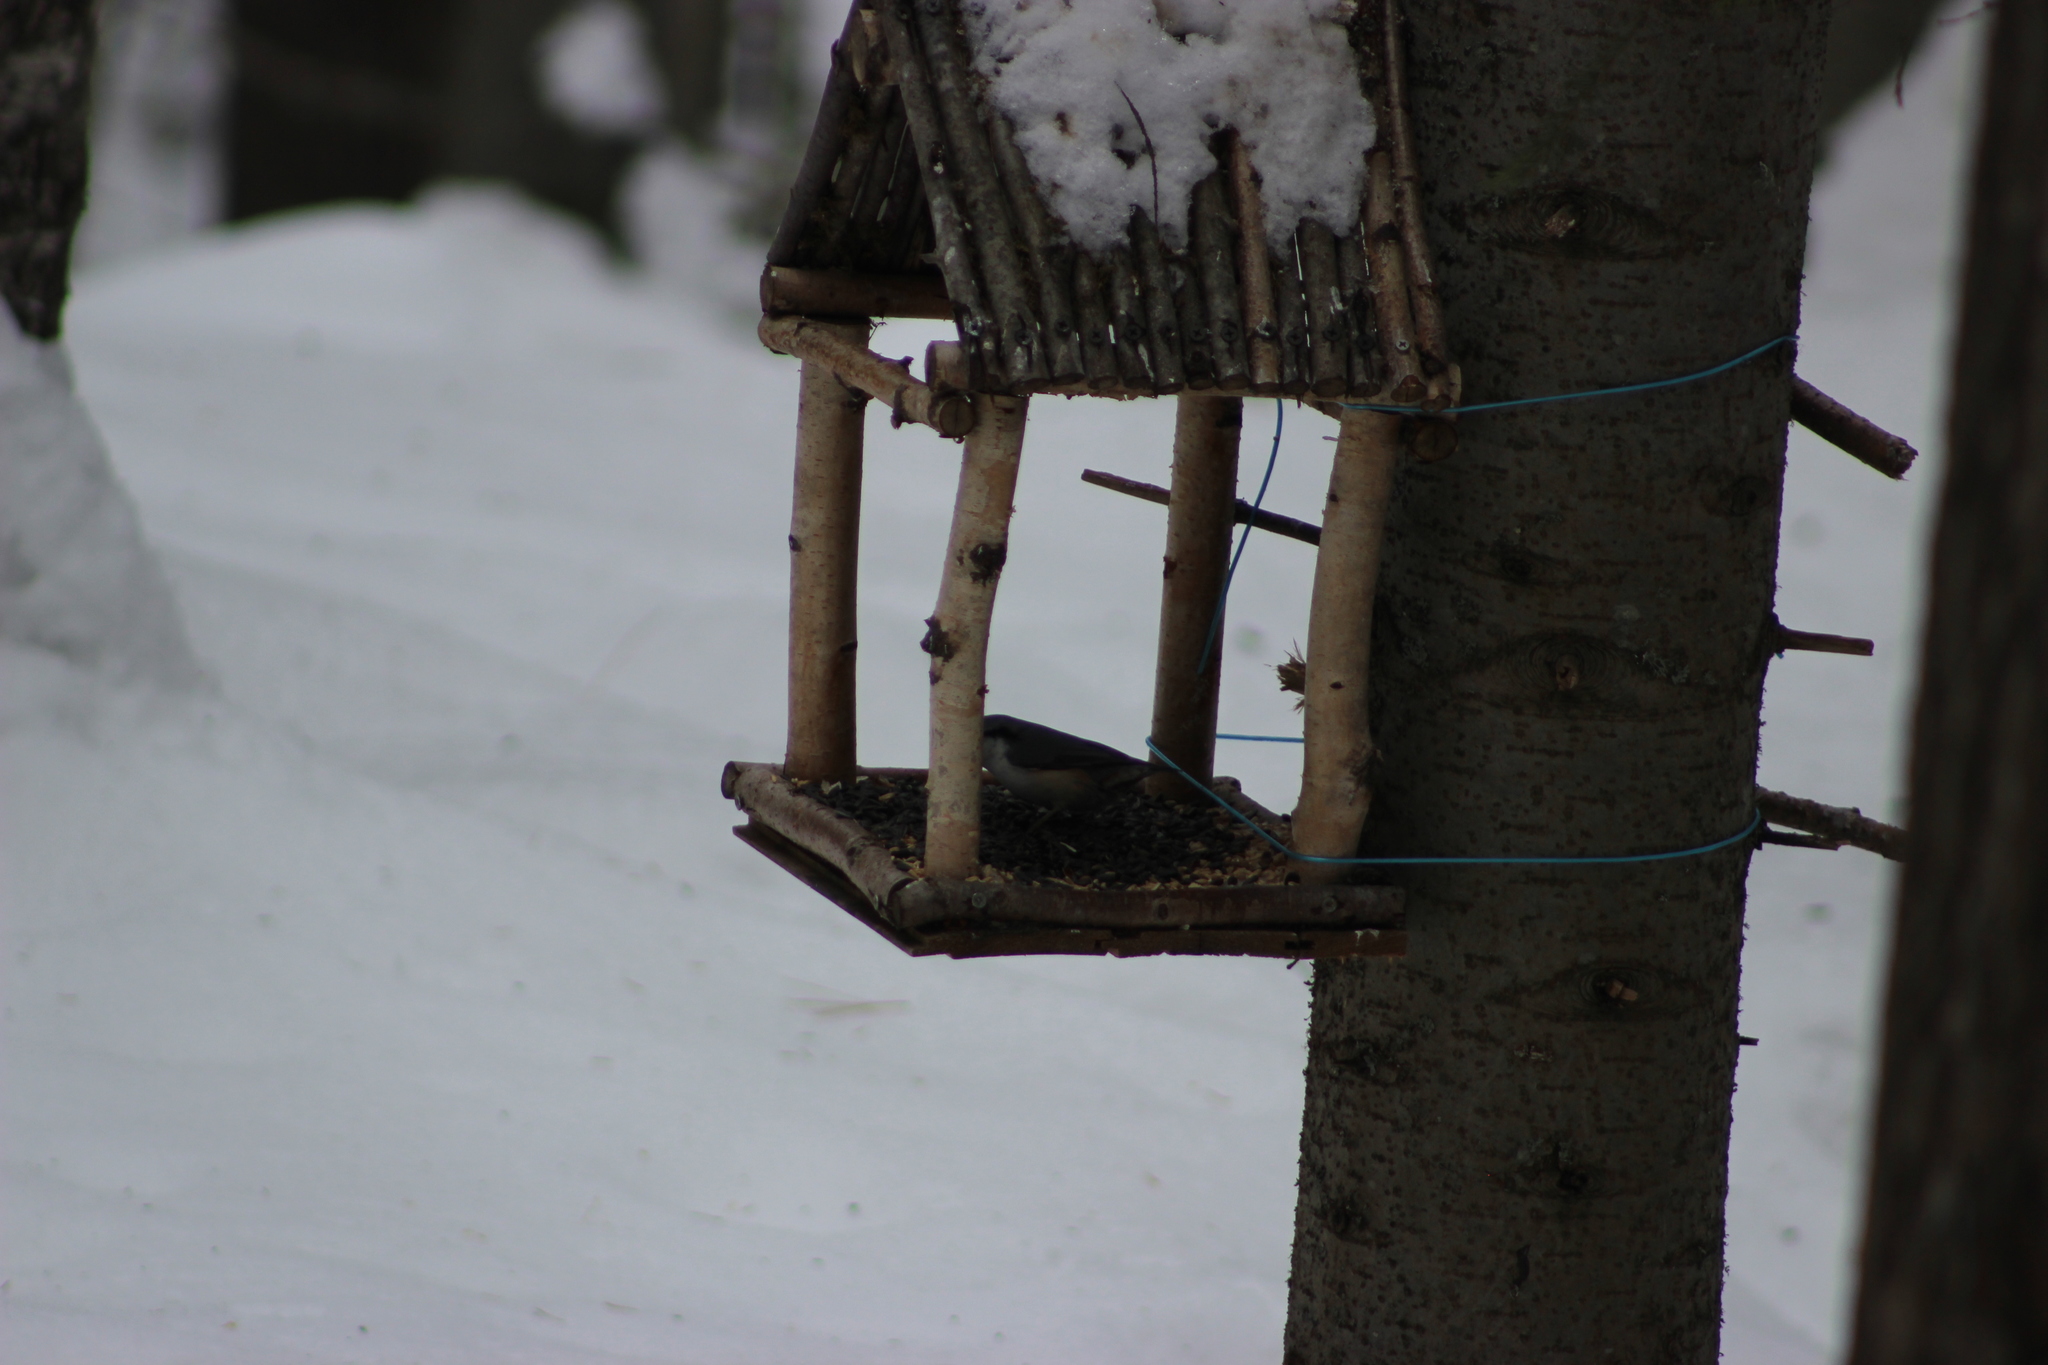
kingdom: Animalia
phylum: Chordata
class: Aves
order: Passeriformes
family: Sittidae
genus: Sitta
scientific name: Sitta europaea
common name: Eurasian nuthatch
